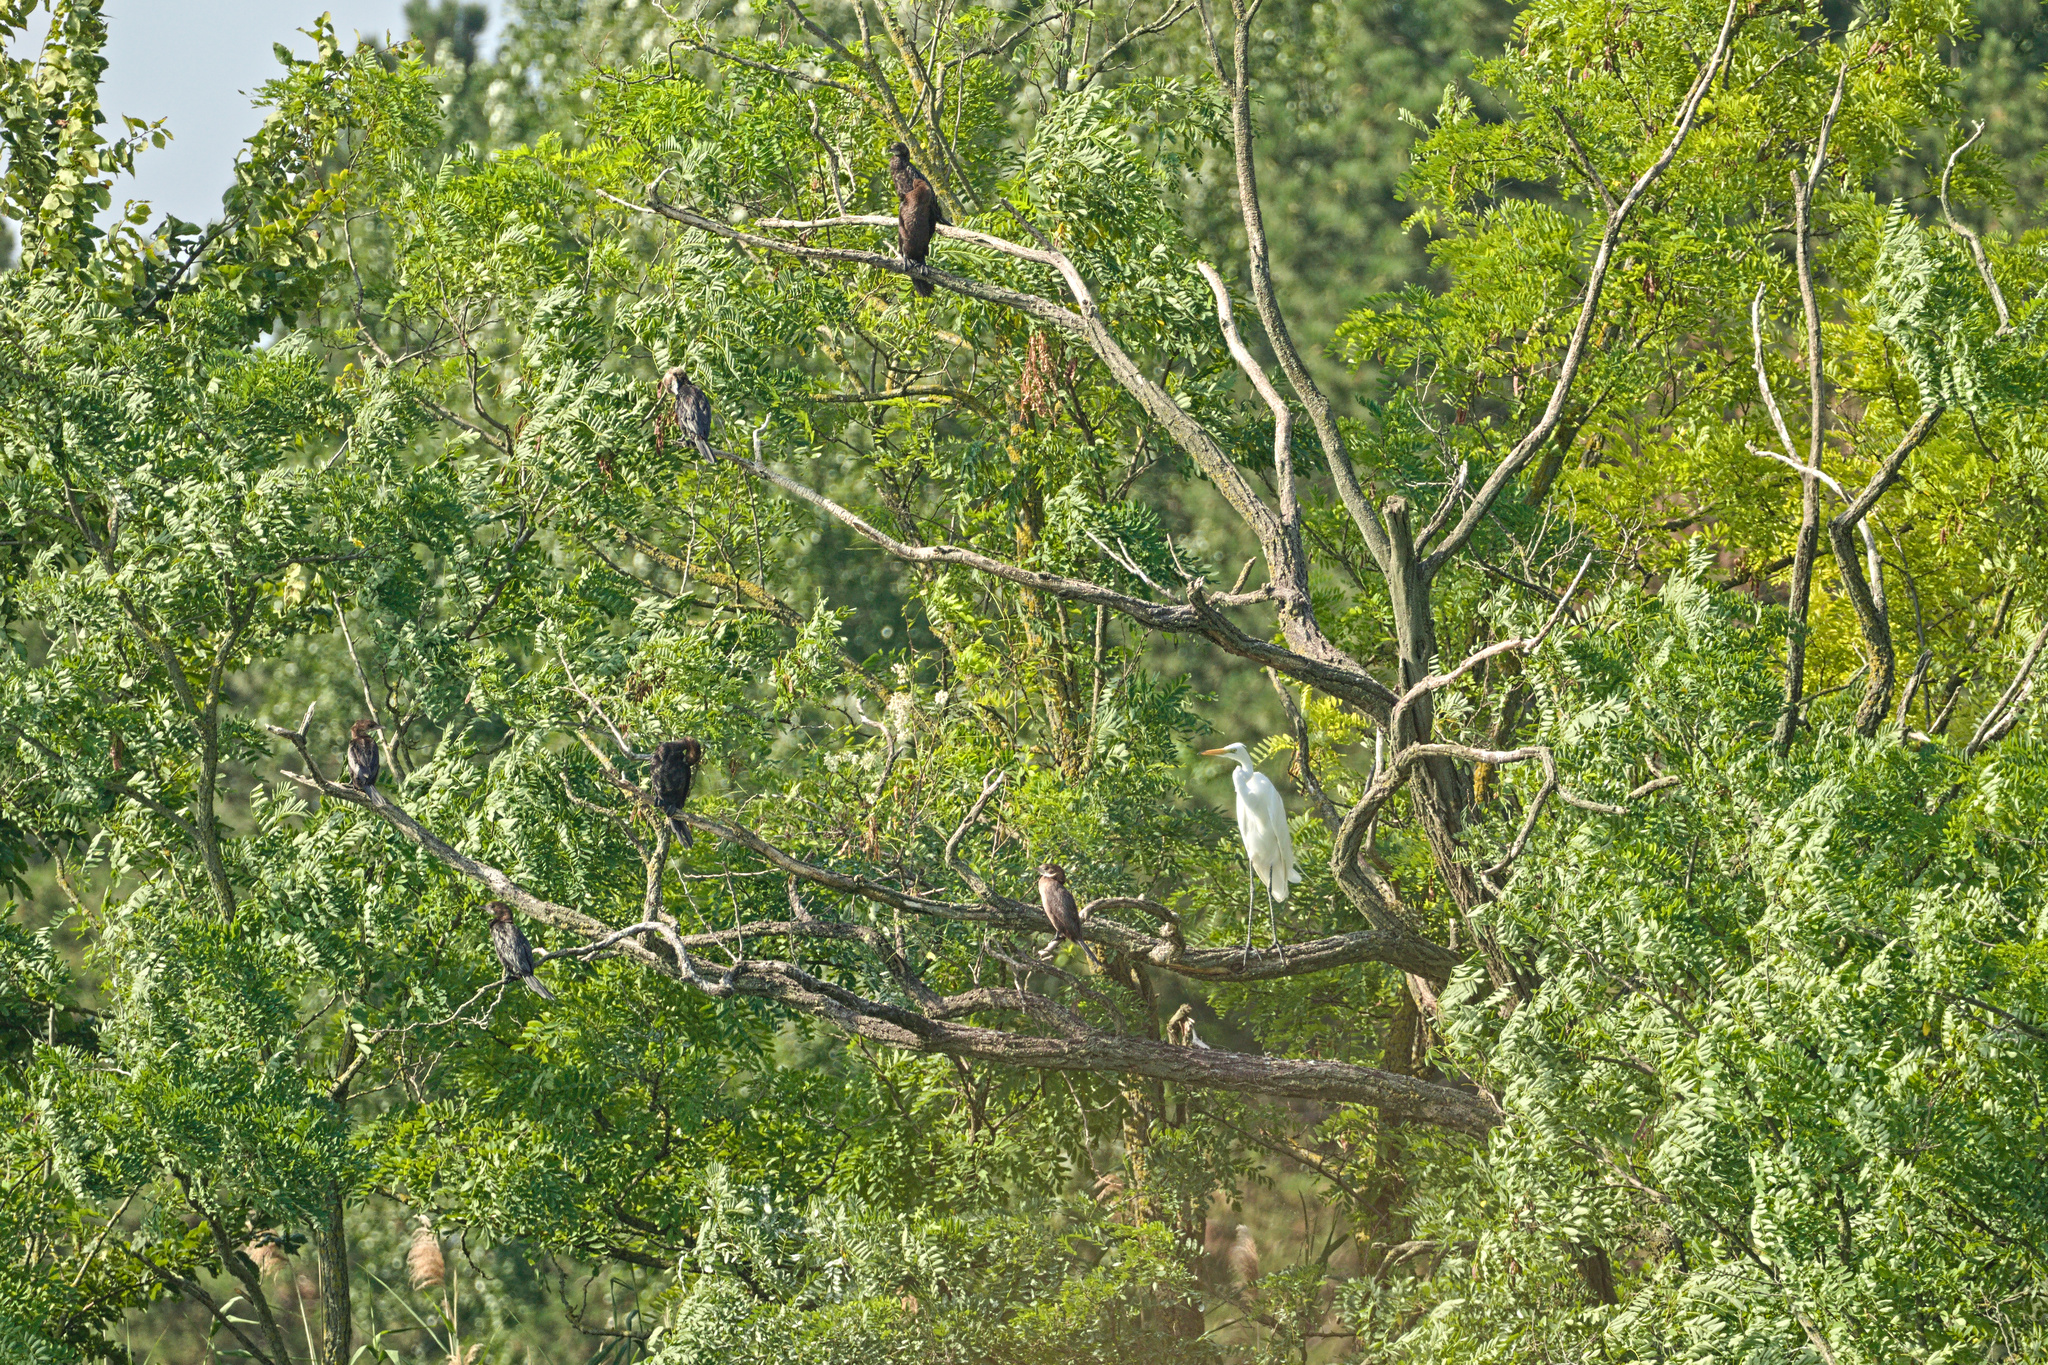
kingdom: Animalia
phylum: Chordata
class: Aves
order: Pelecaniformes
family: Ardeidae
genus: Ardea
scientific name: Ardea alba
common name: Great egret
